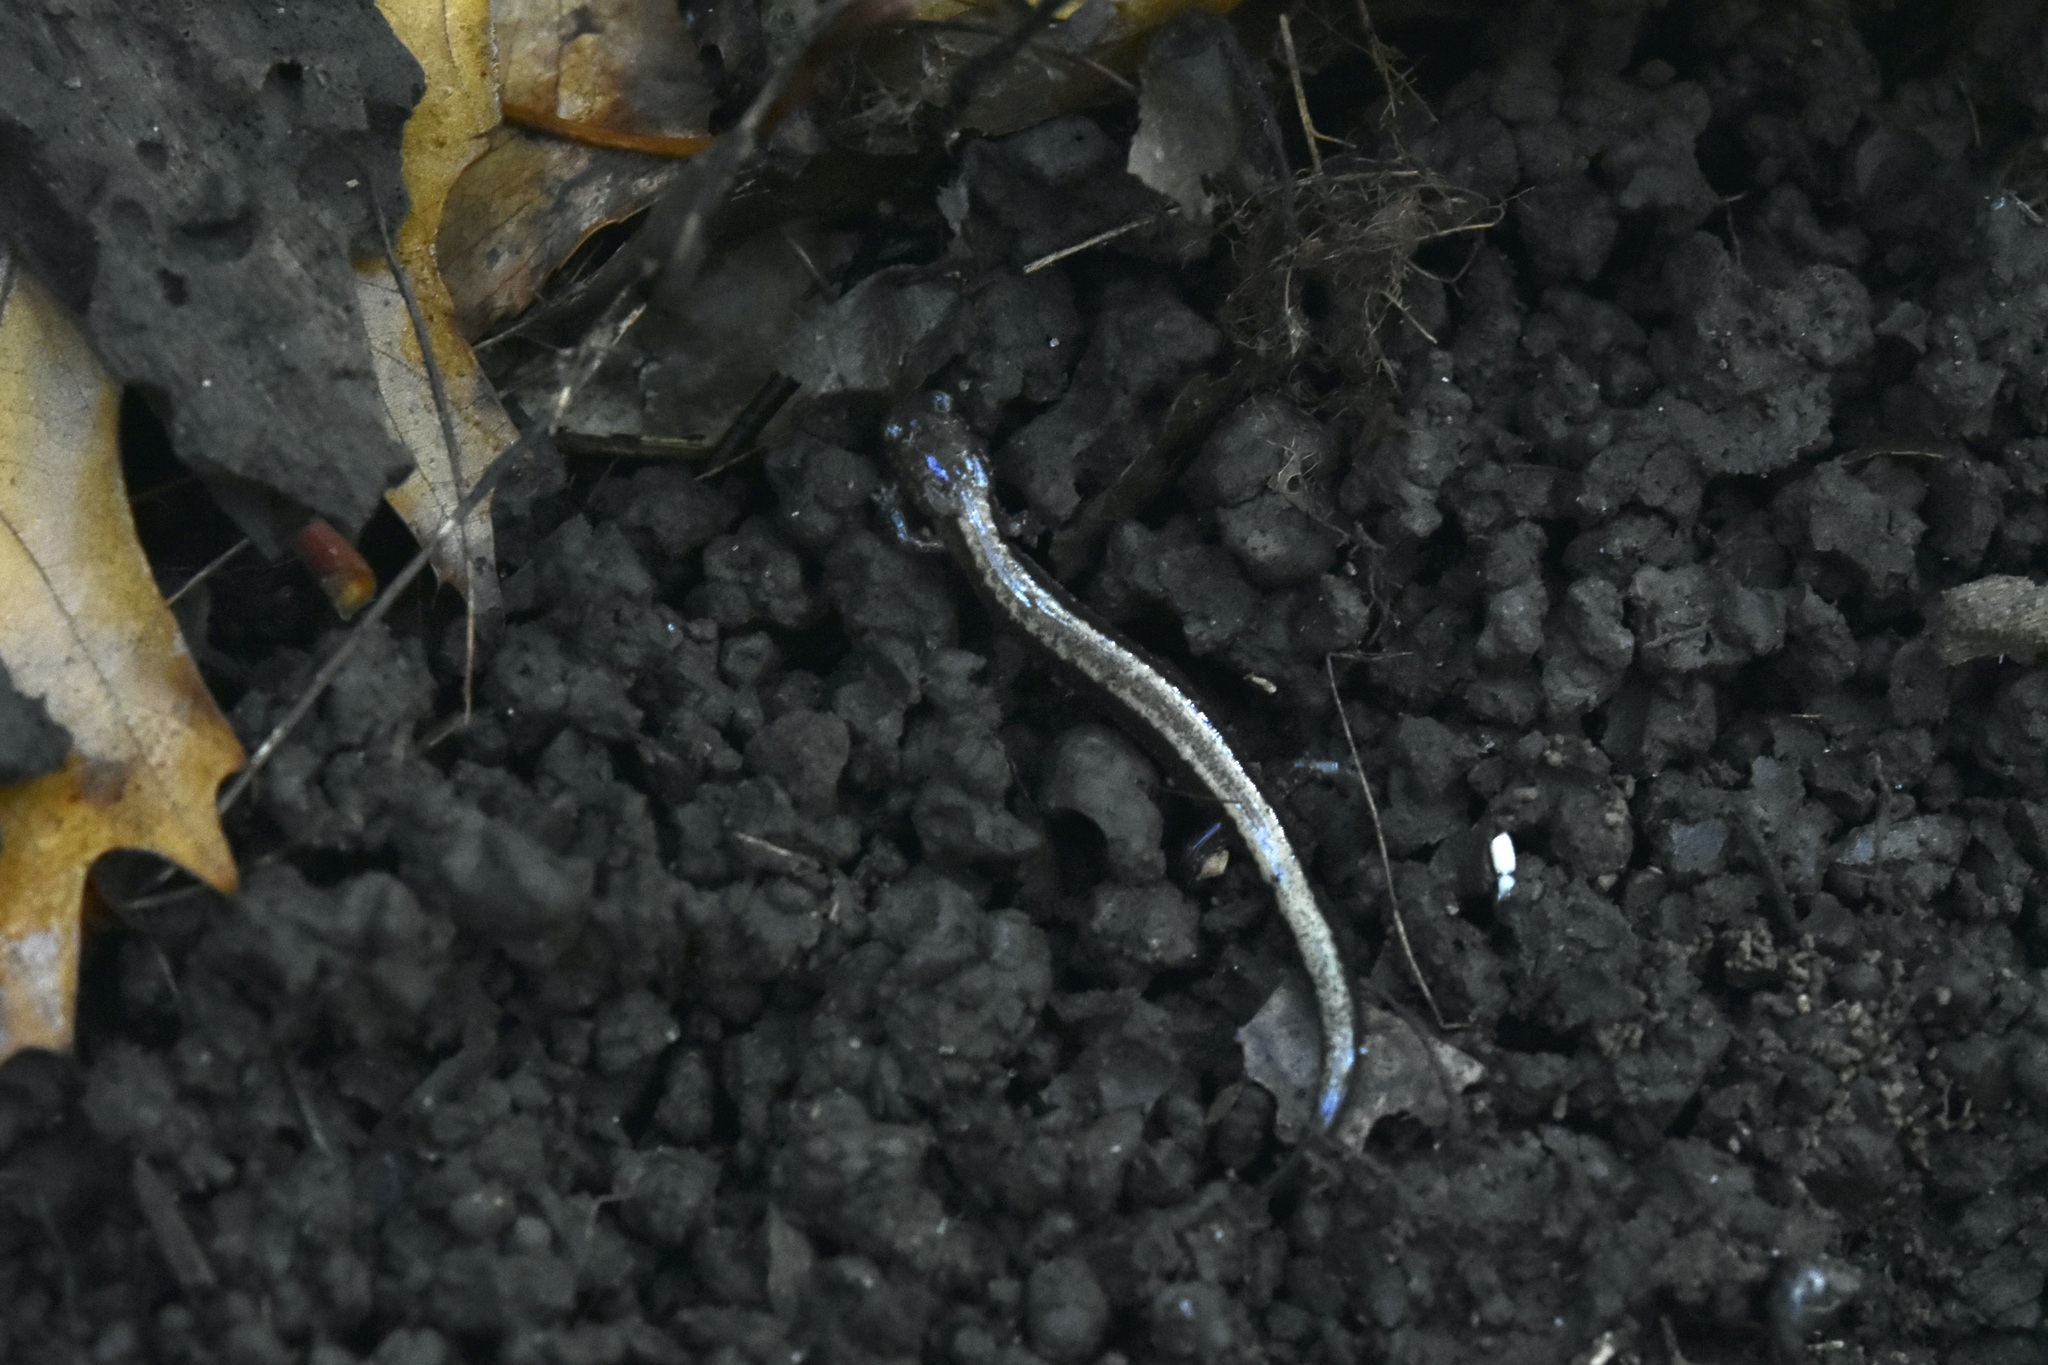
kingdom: Animalia
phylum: Chordata
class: Amphibia
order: Caudata
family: Plethodontidae
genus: Plethodon
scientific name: Plethodon cinereus
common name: Redback salamander
